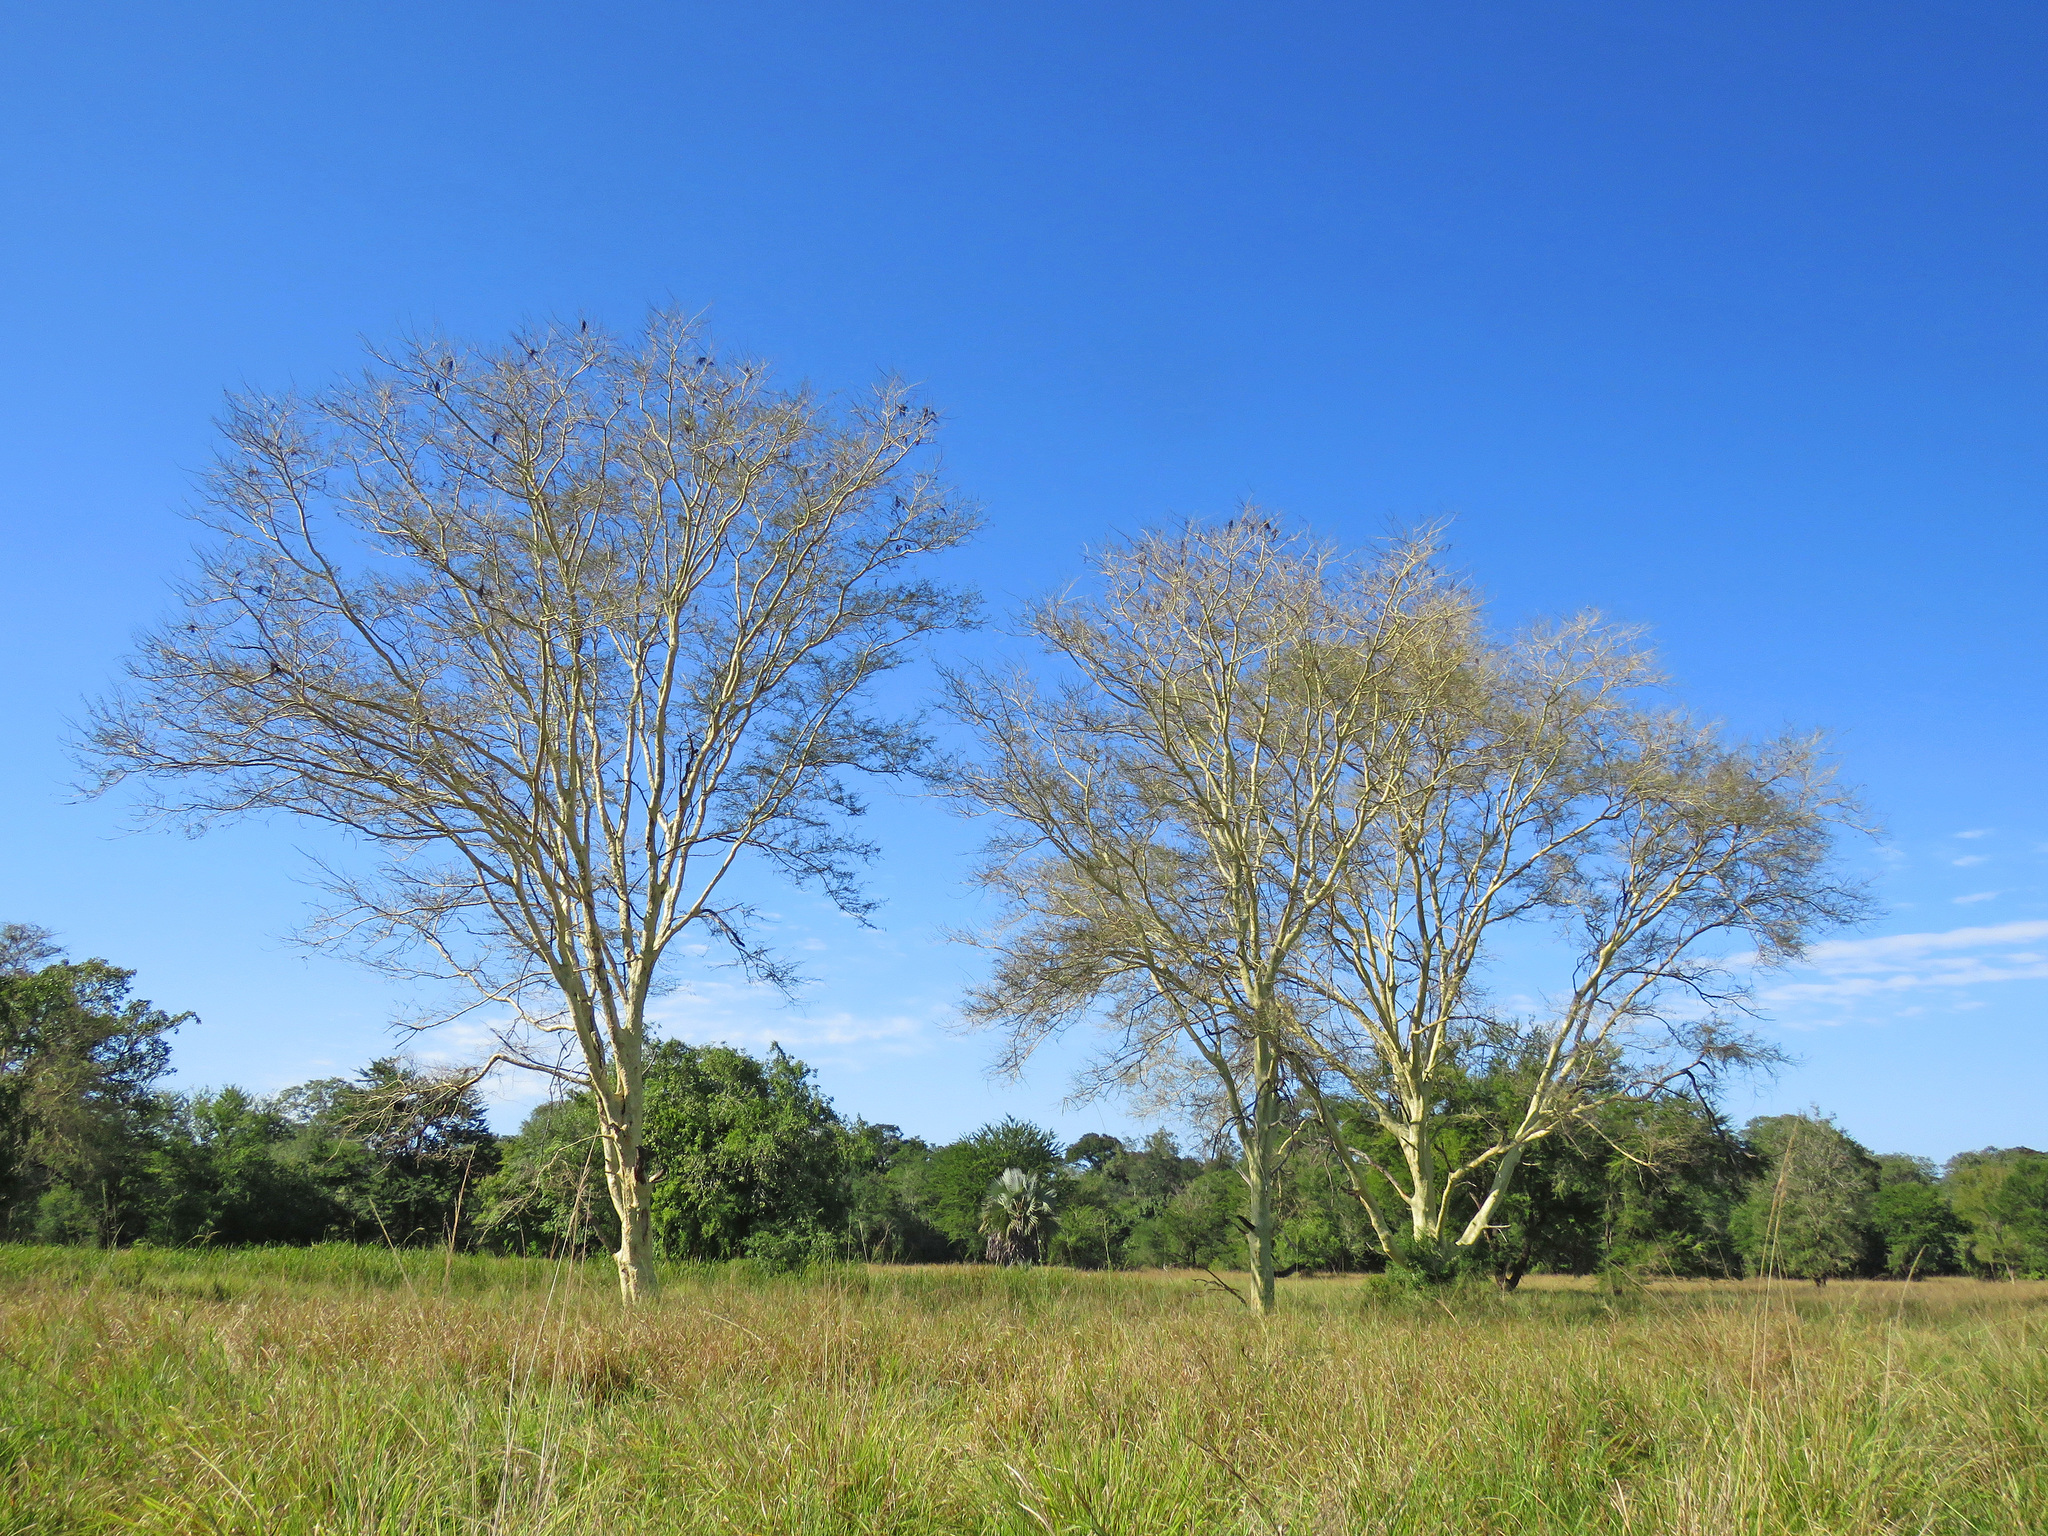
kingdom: Plantae
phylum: Tracheophyta
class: Magnoliopsida
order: Fabales
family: Fabaceae
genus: Vachellia
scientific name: Vachellia xanthophloea
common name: Fever tree
